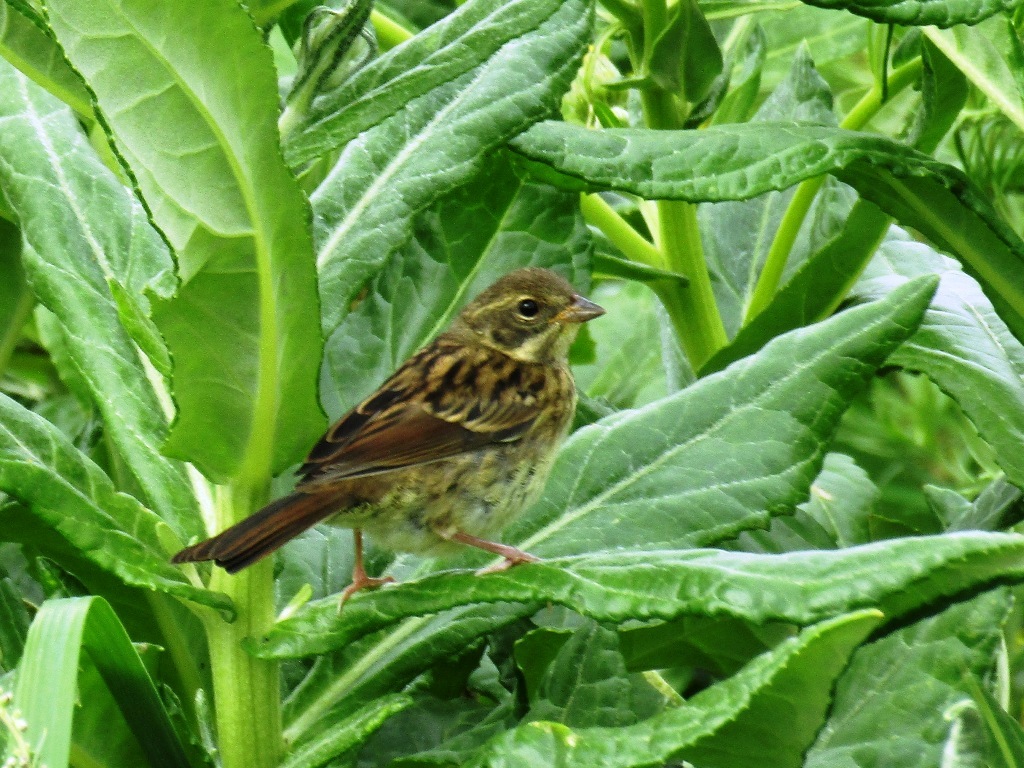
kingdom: Animalia
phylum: Chordata
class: Aves
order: Passeriformes
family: Emberizidae
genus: Emberiza
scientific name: Emberiza personata
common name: Masked bunting
